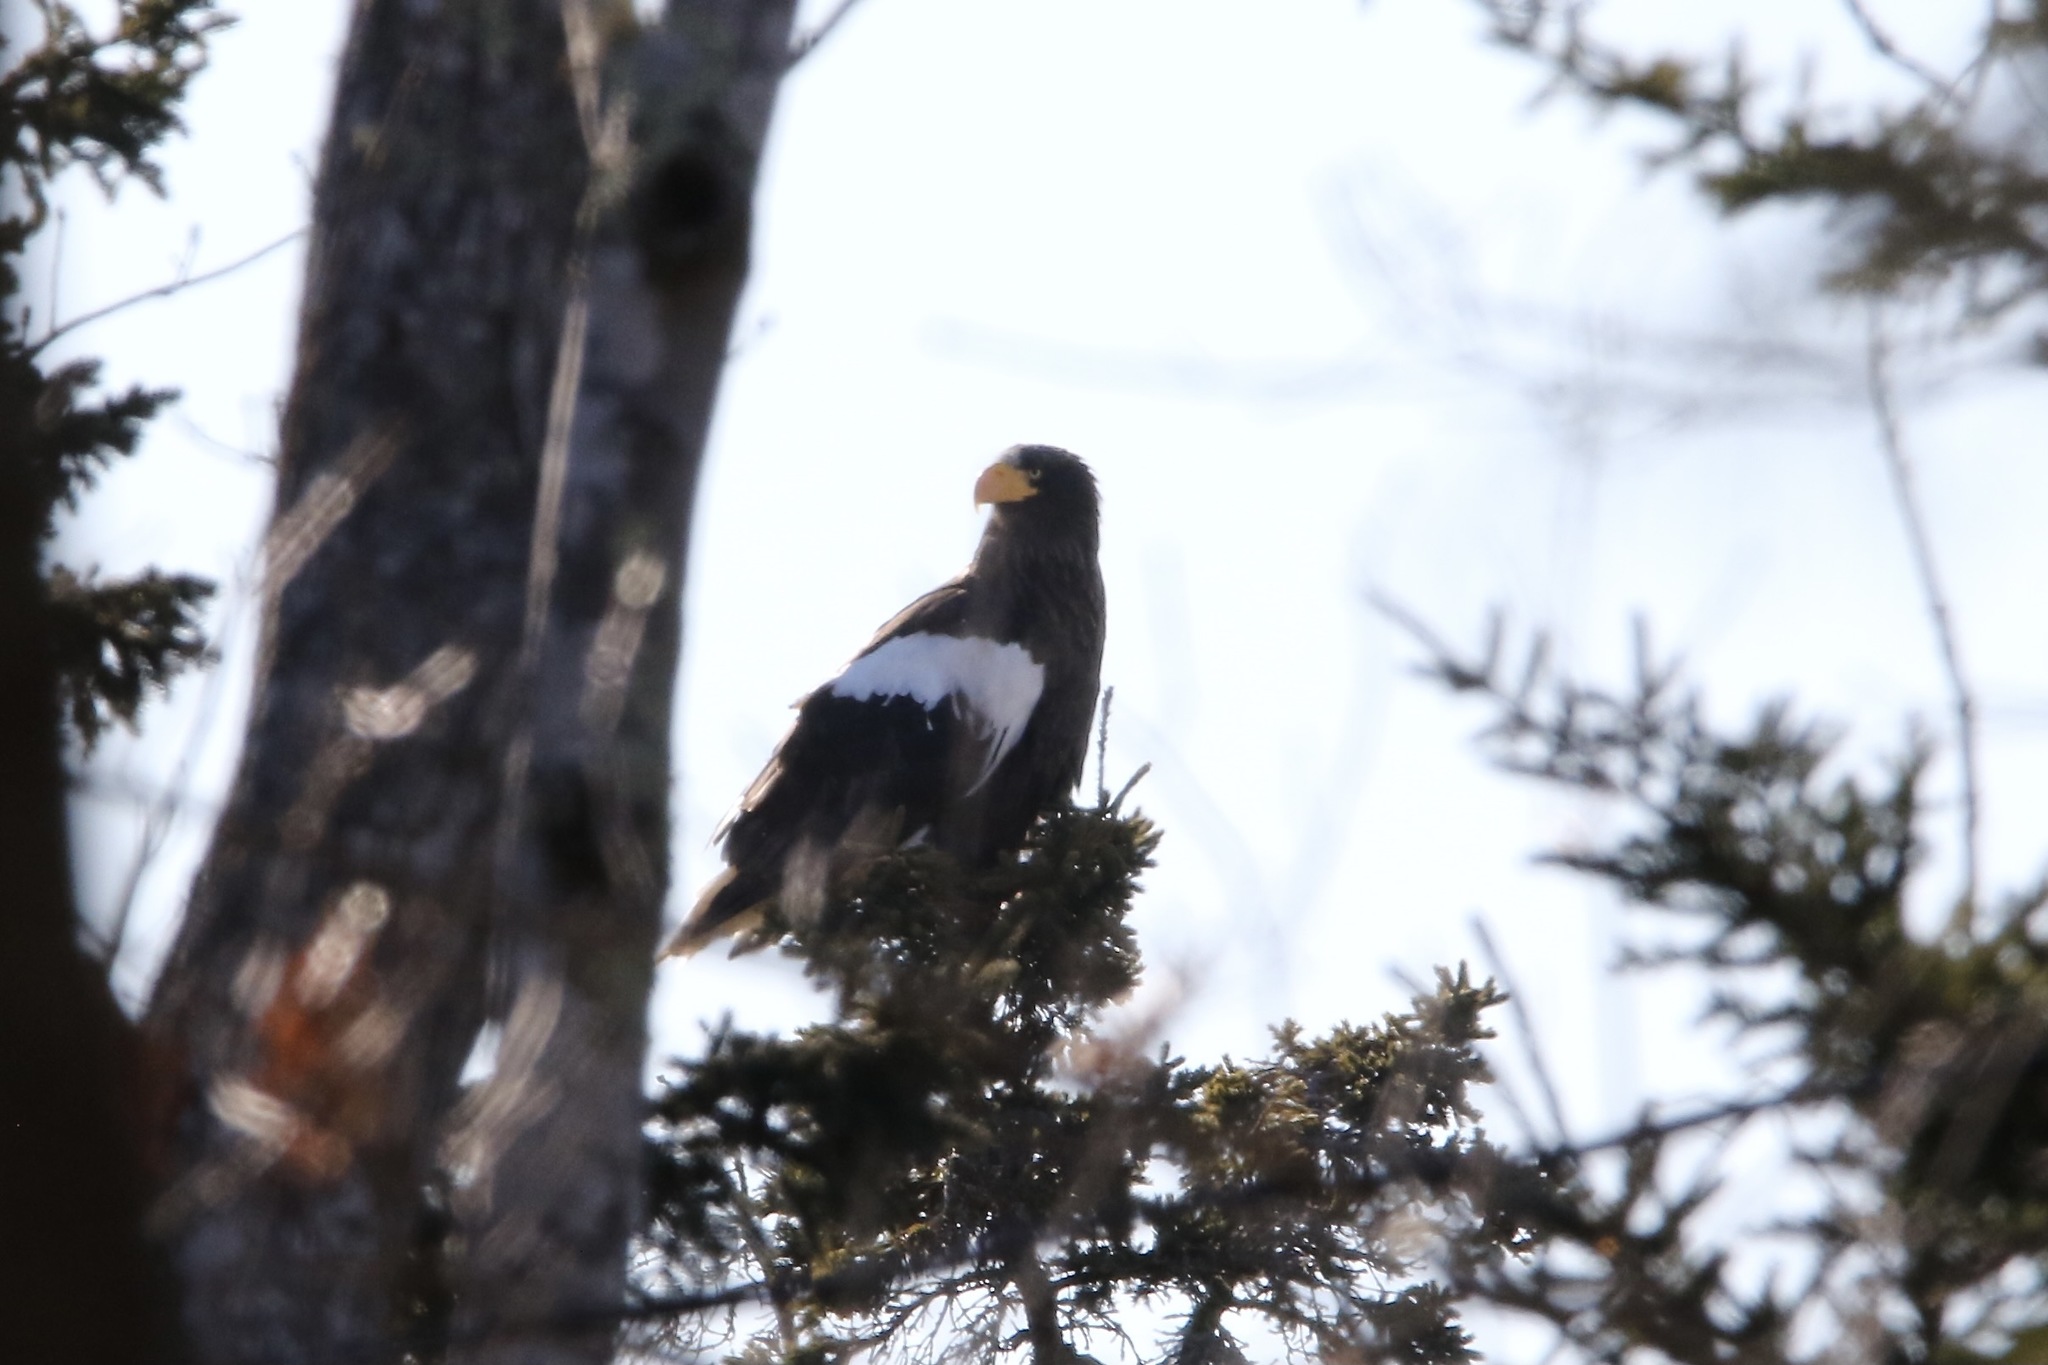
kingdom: Animalia
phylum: Chordata
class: Aves
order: Accipitriformes
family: Accipitridae
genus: Haliaeetus
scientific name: Haliaeetus pelagicus
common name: Steller's sea eagle
